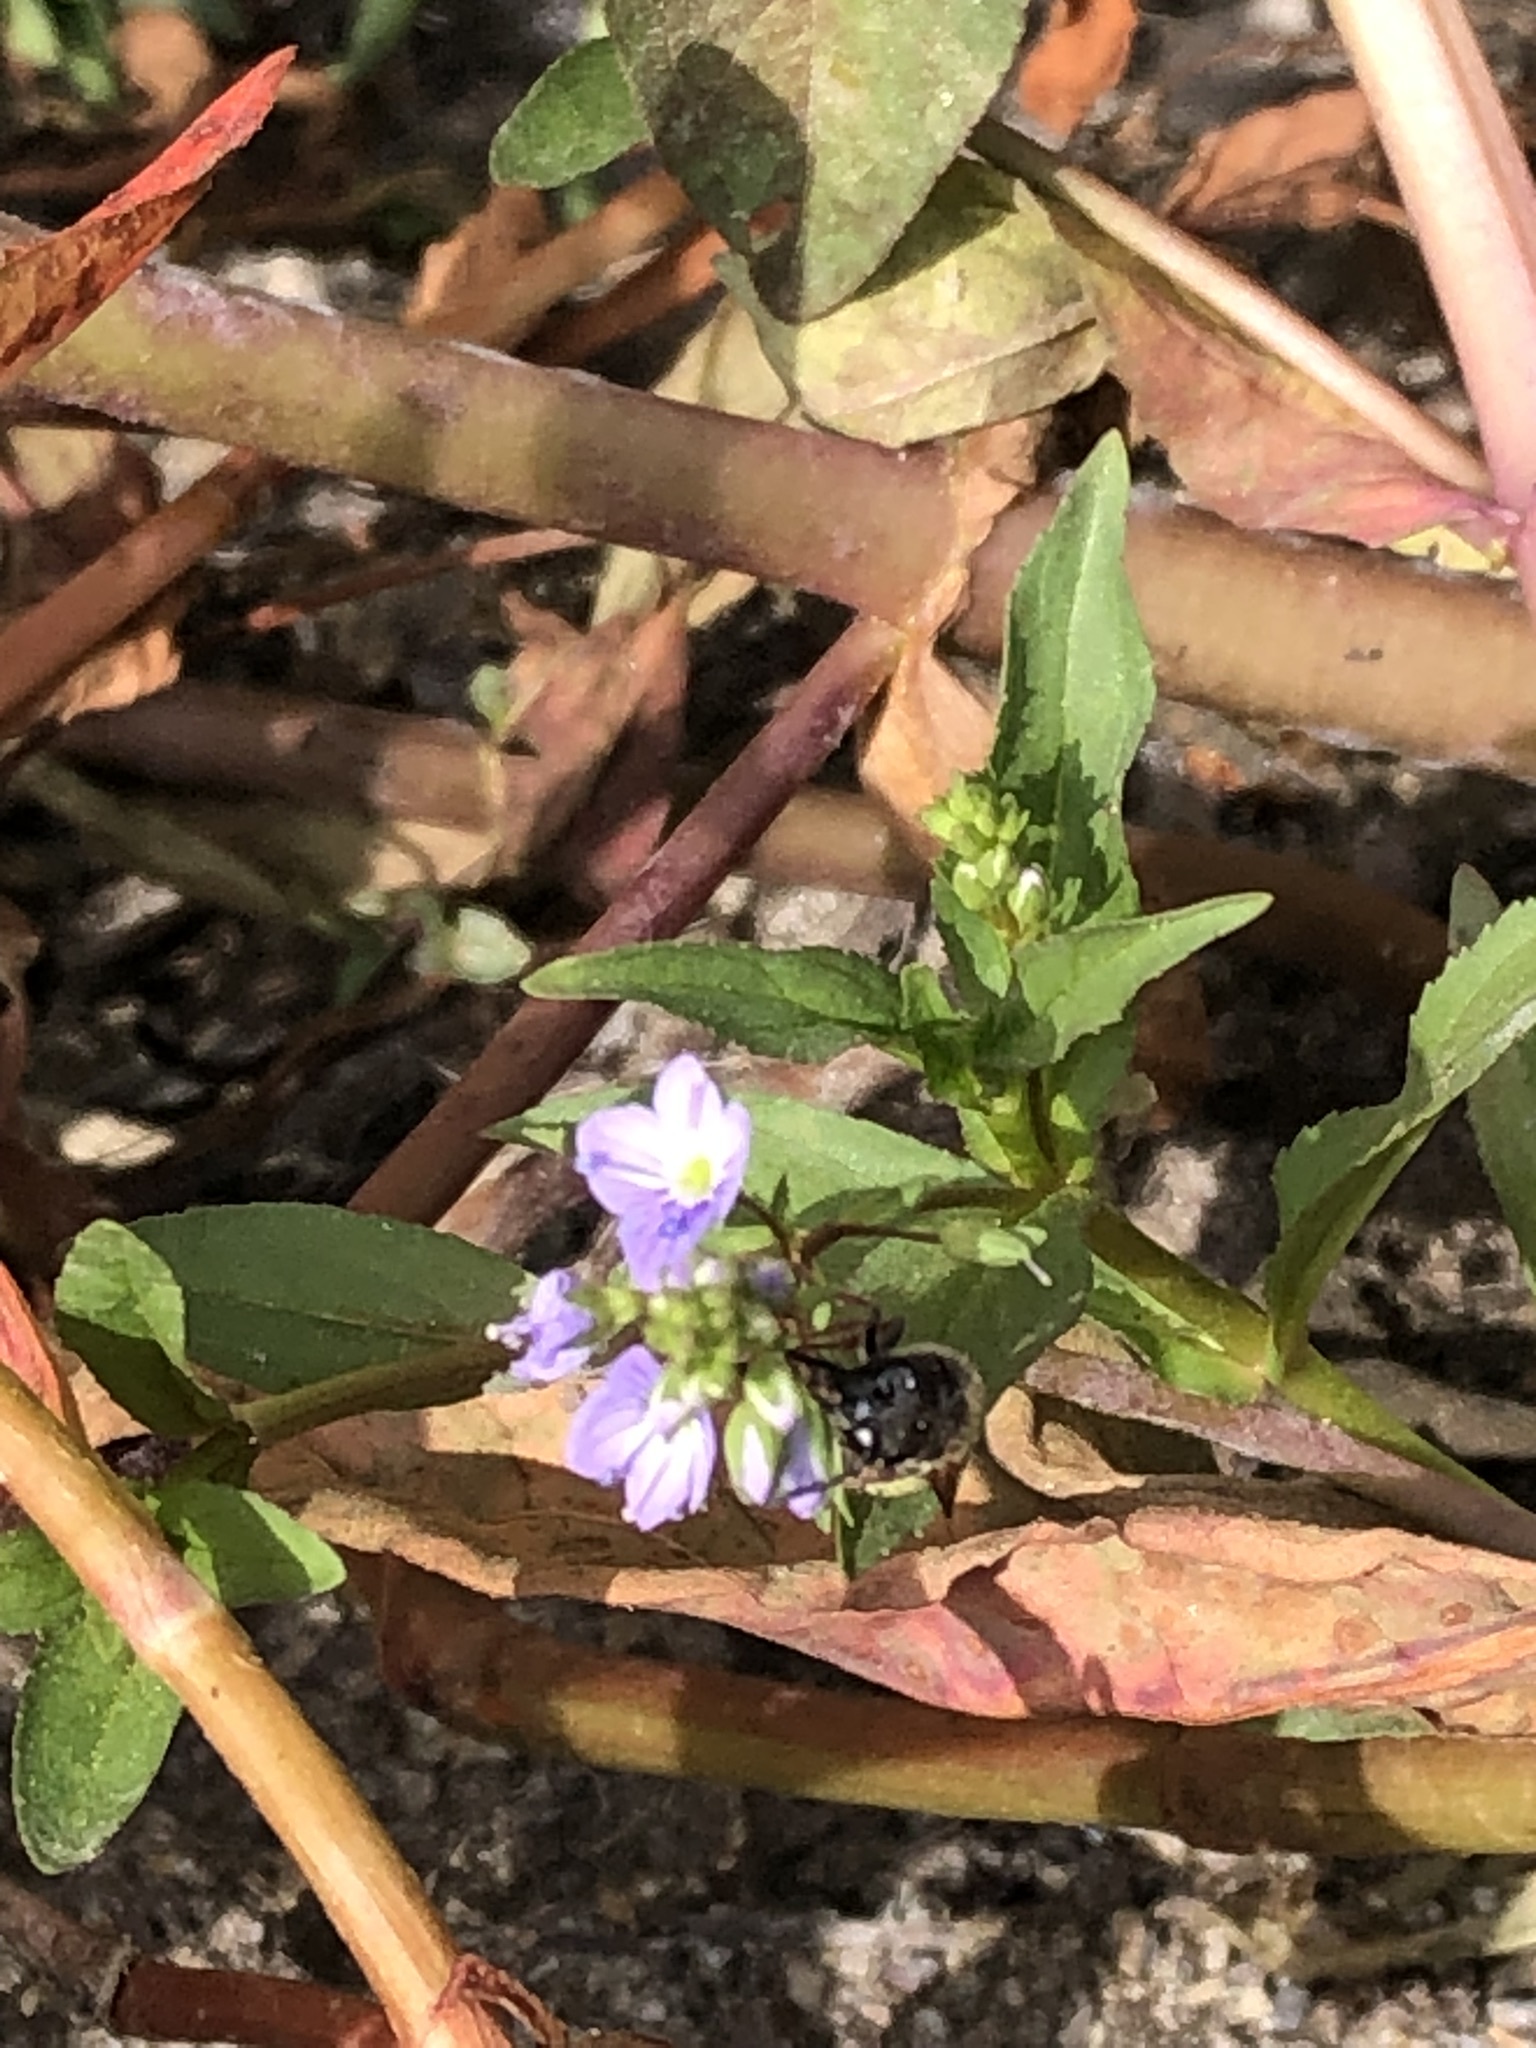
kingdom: Plantae
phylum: Tracheophyta
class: Magnoliopsida
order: Lamiales
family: Plantaginaceae
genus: Veronica
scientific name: Veronica anagallis-aquatica
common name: Water speedwell
